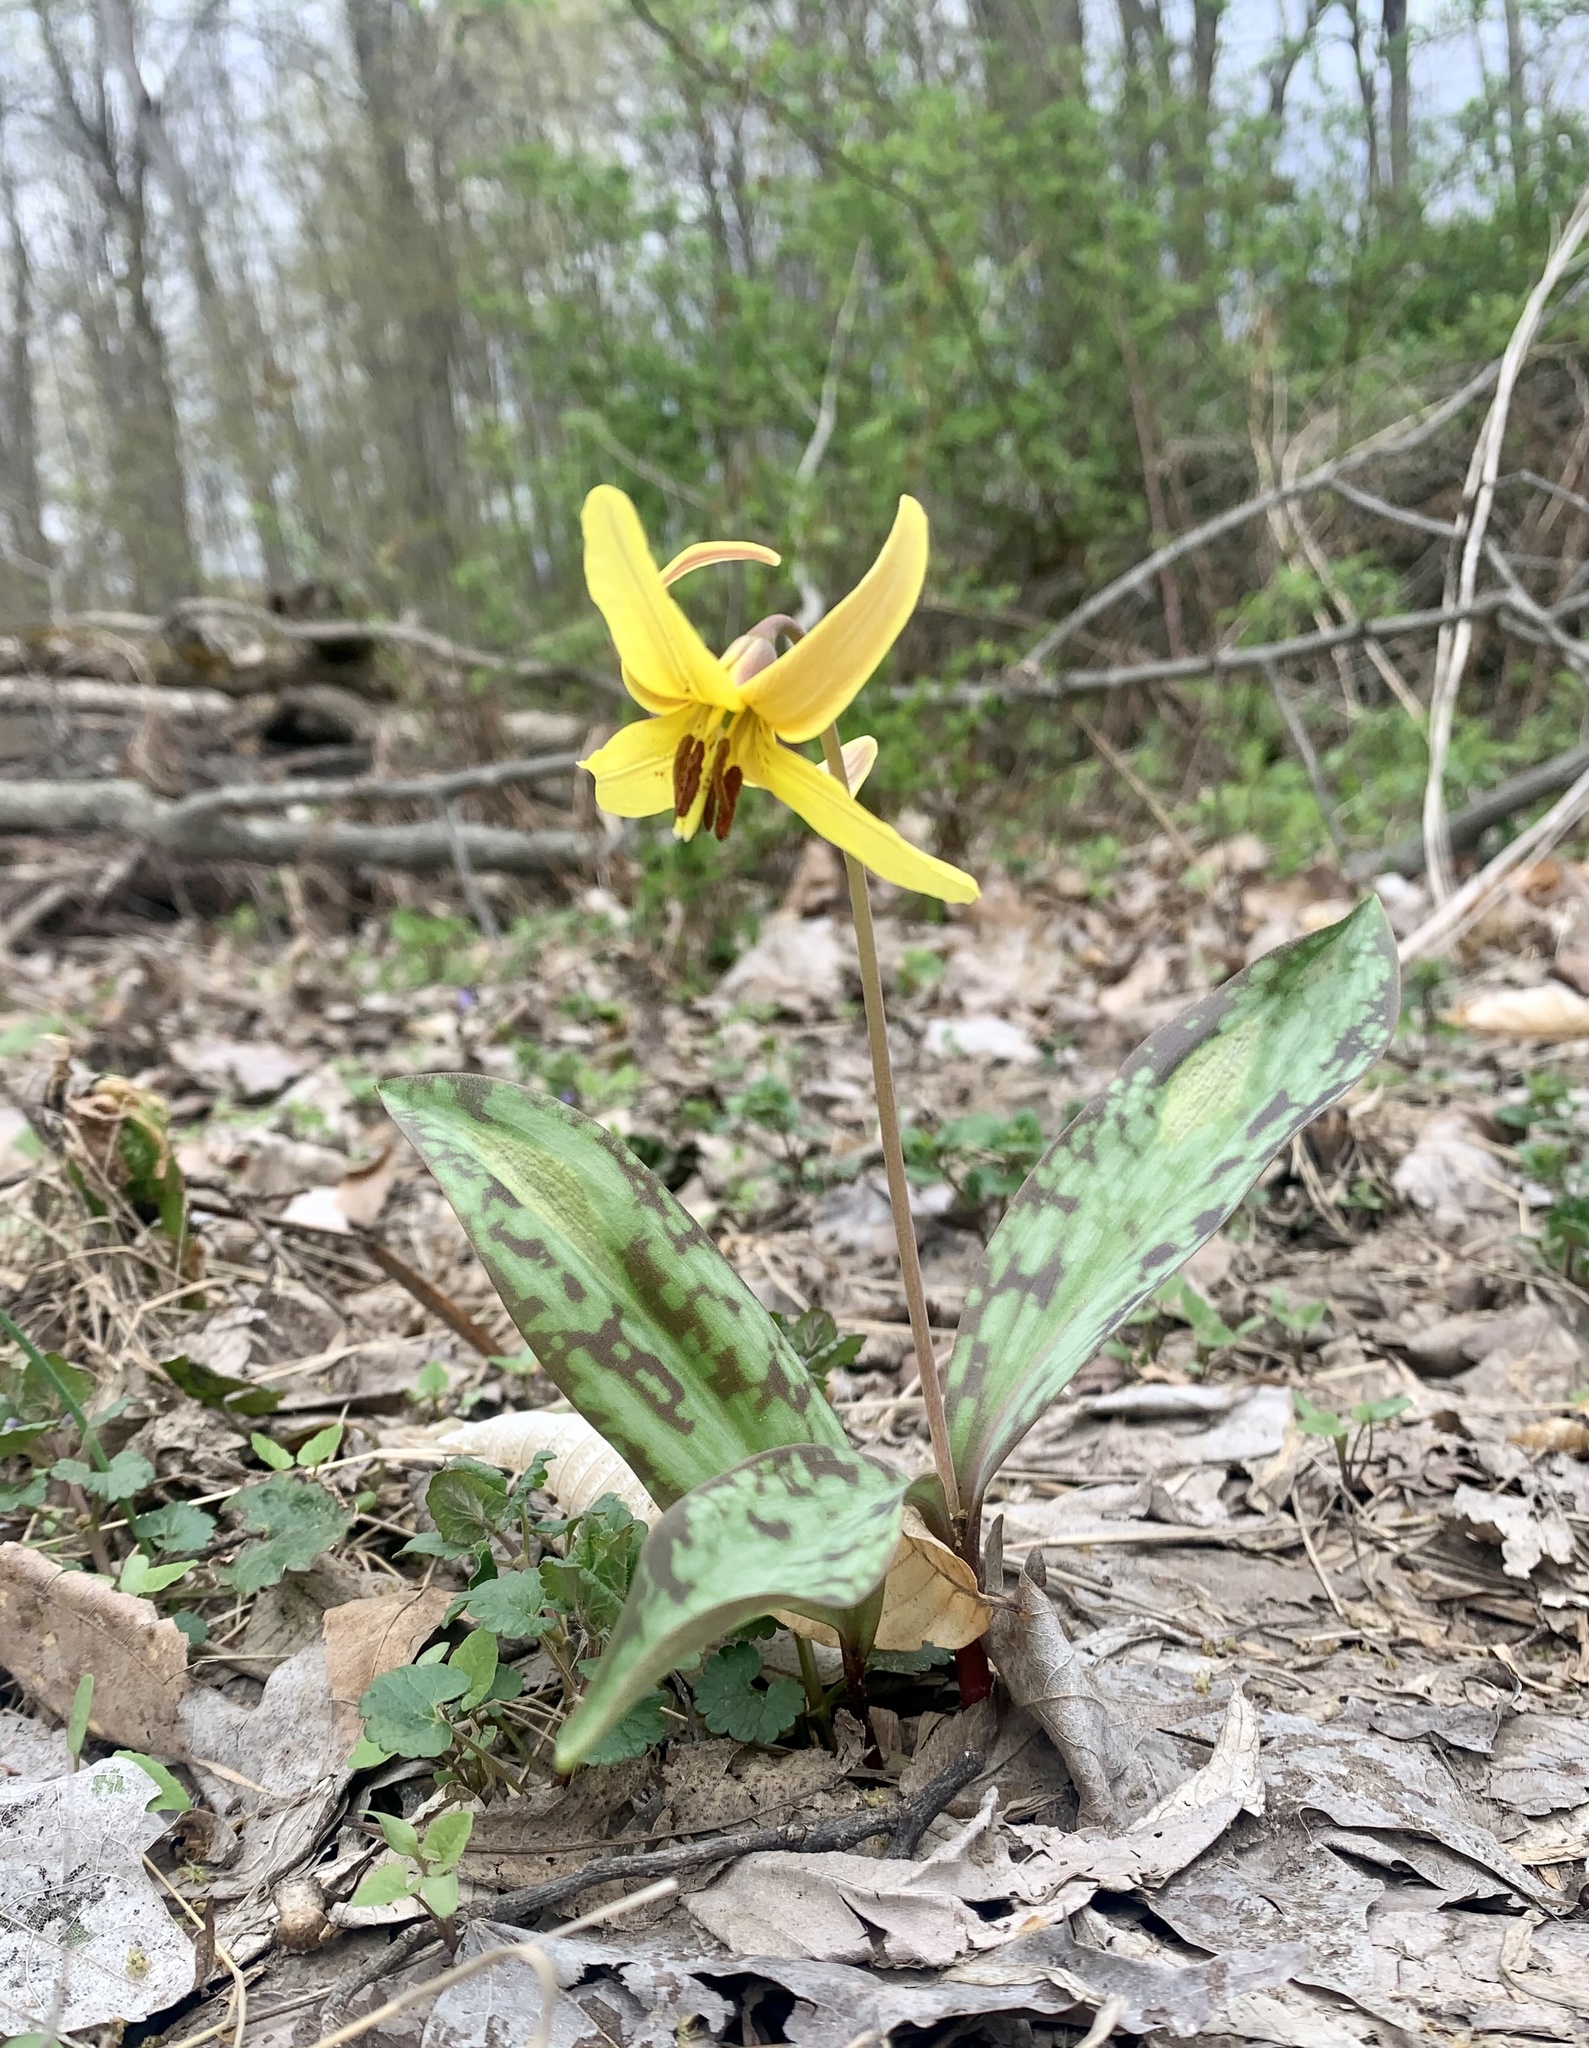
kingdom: Plantae
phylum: Tracheophyta
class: Liliopsida
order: Liliales
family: Liliaceae
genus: Erythronium
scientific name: Erythronium americanum
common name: Yellow adder's-tongue
